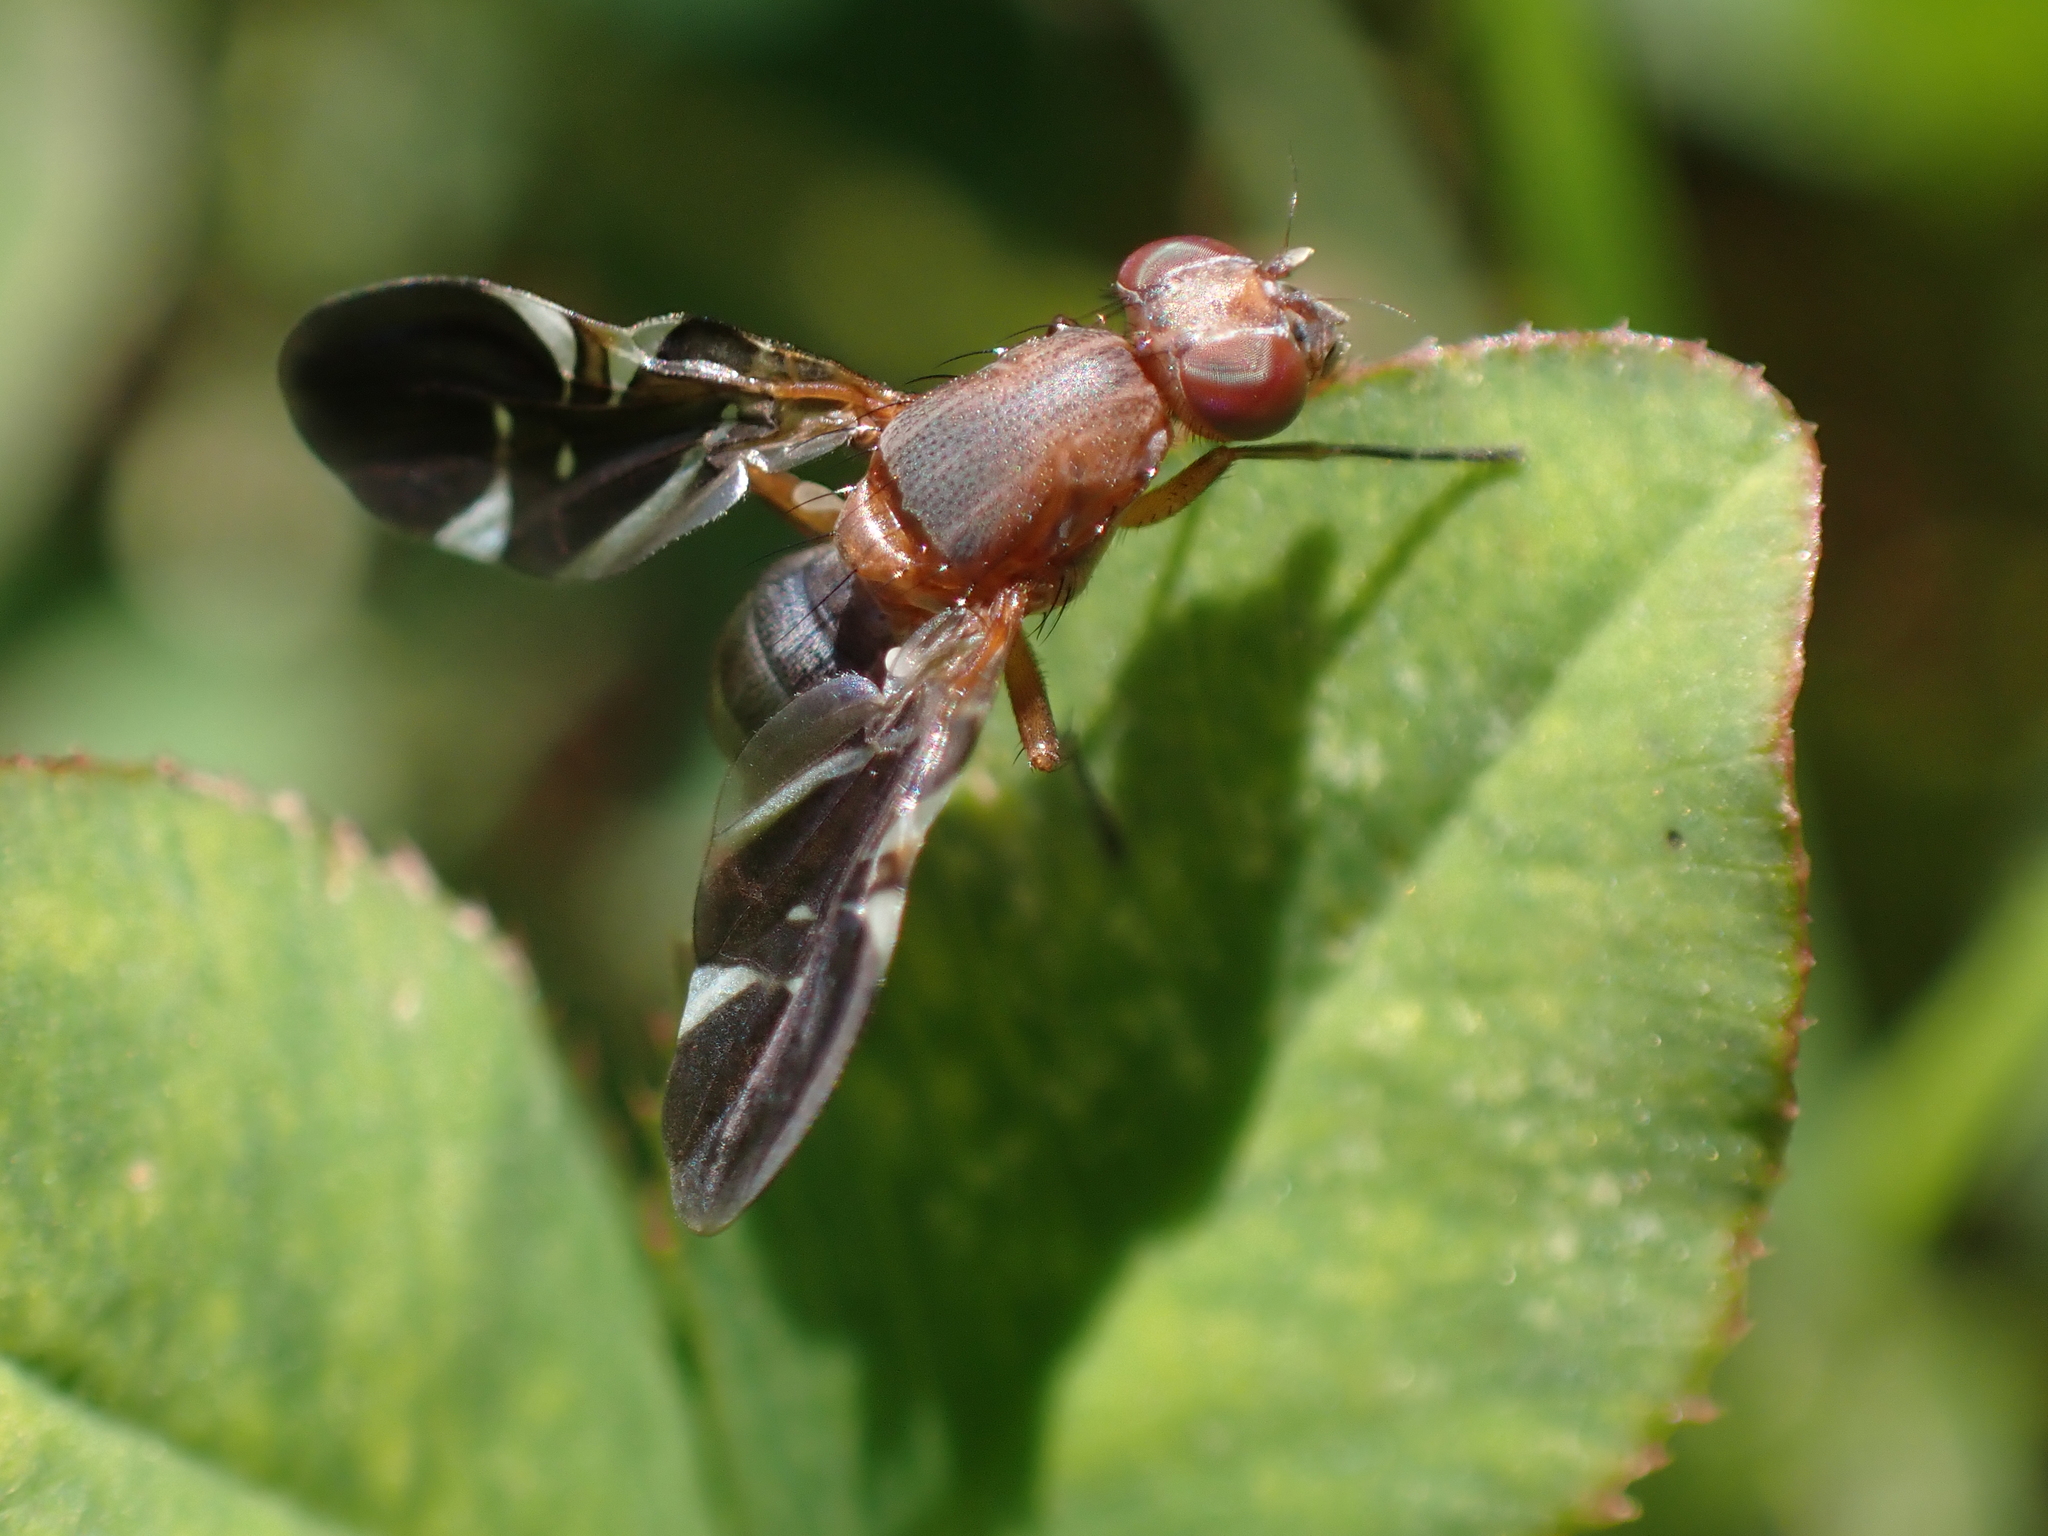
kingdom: Animalia
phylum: Arthropoda
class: Insecta
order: Diptera
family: Ulidiidae
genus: Delphinia
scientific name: Delphinia picta
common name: Common picture-winged fly
